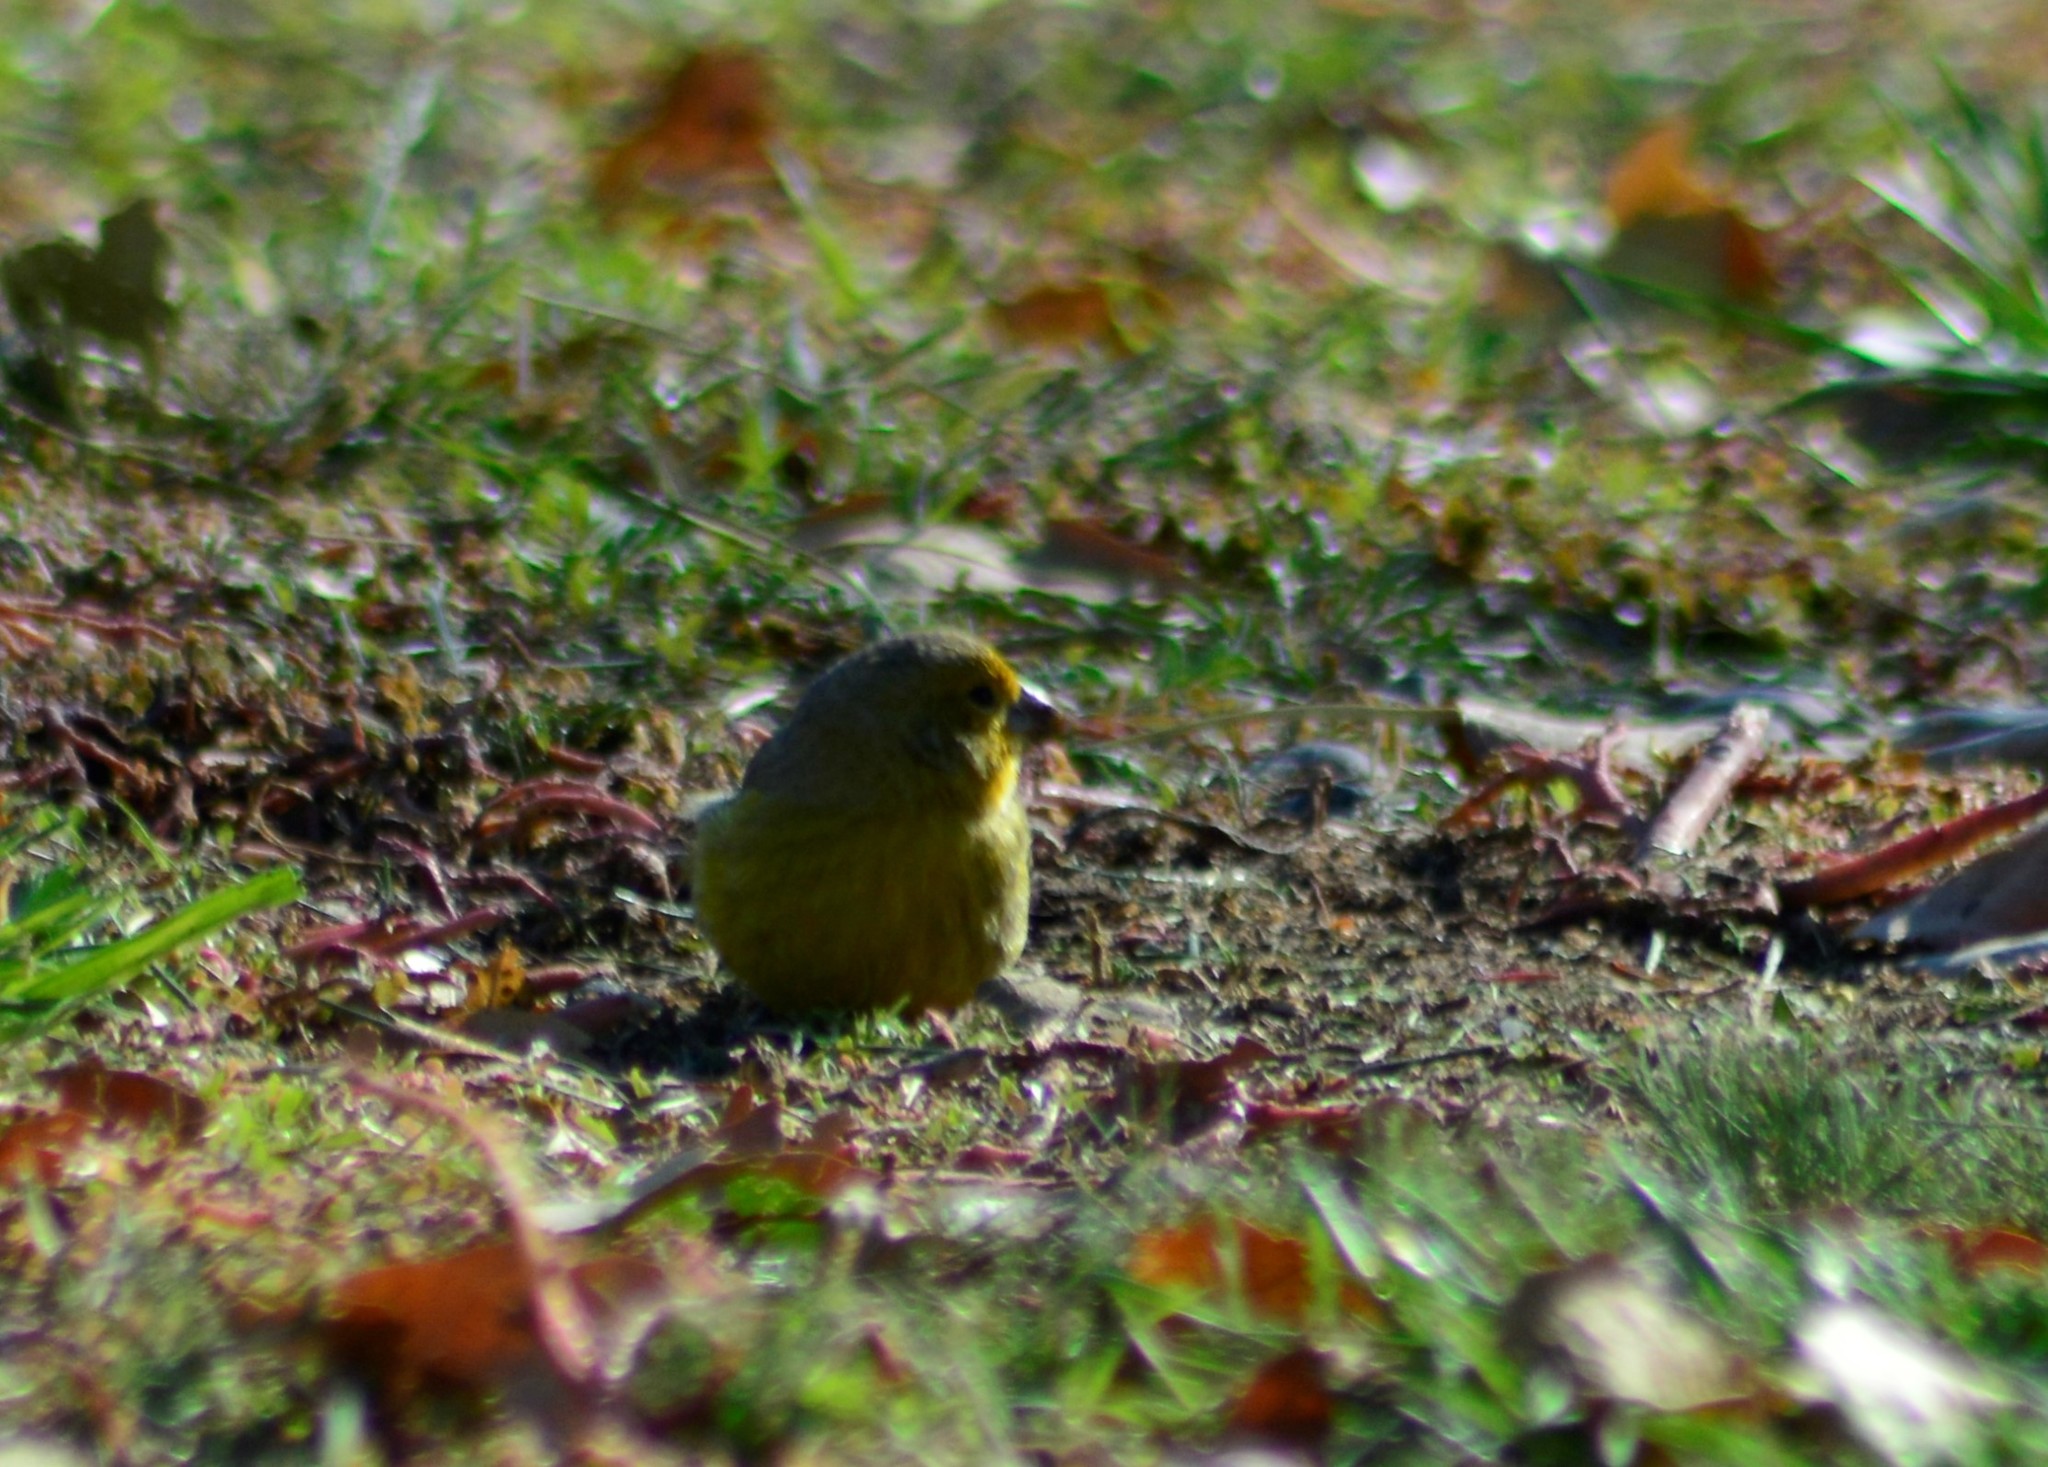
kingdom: Animalia
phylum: Chordata
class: Aves
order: Passeriformes
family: Thraupidae
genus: Sicalis
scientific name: Sicalis flaveola
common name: Saffron finch
